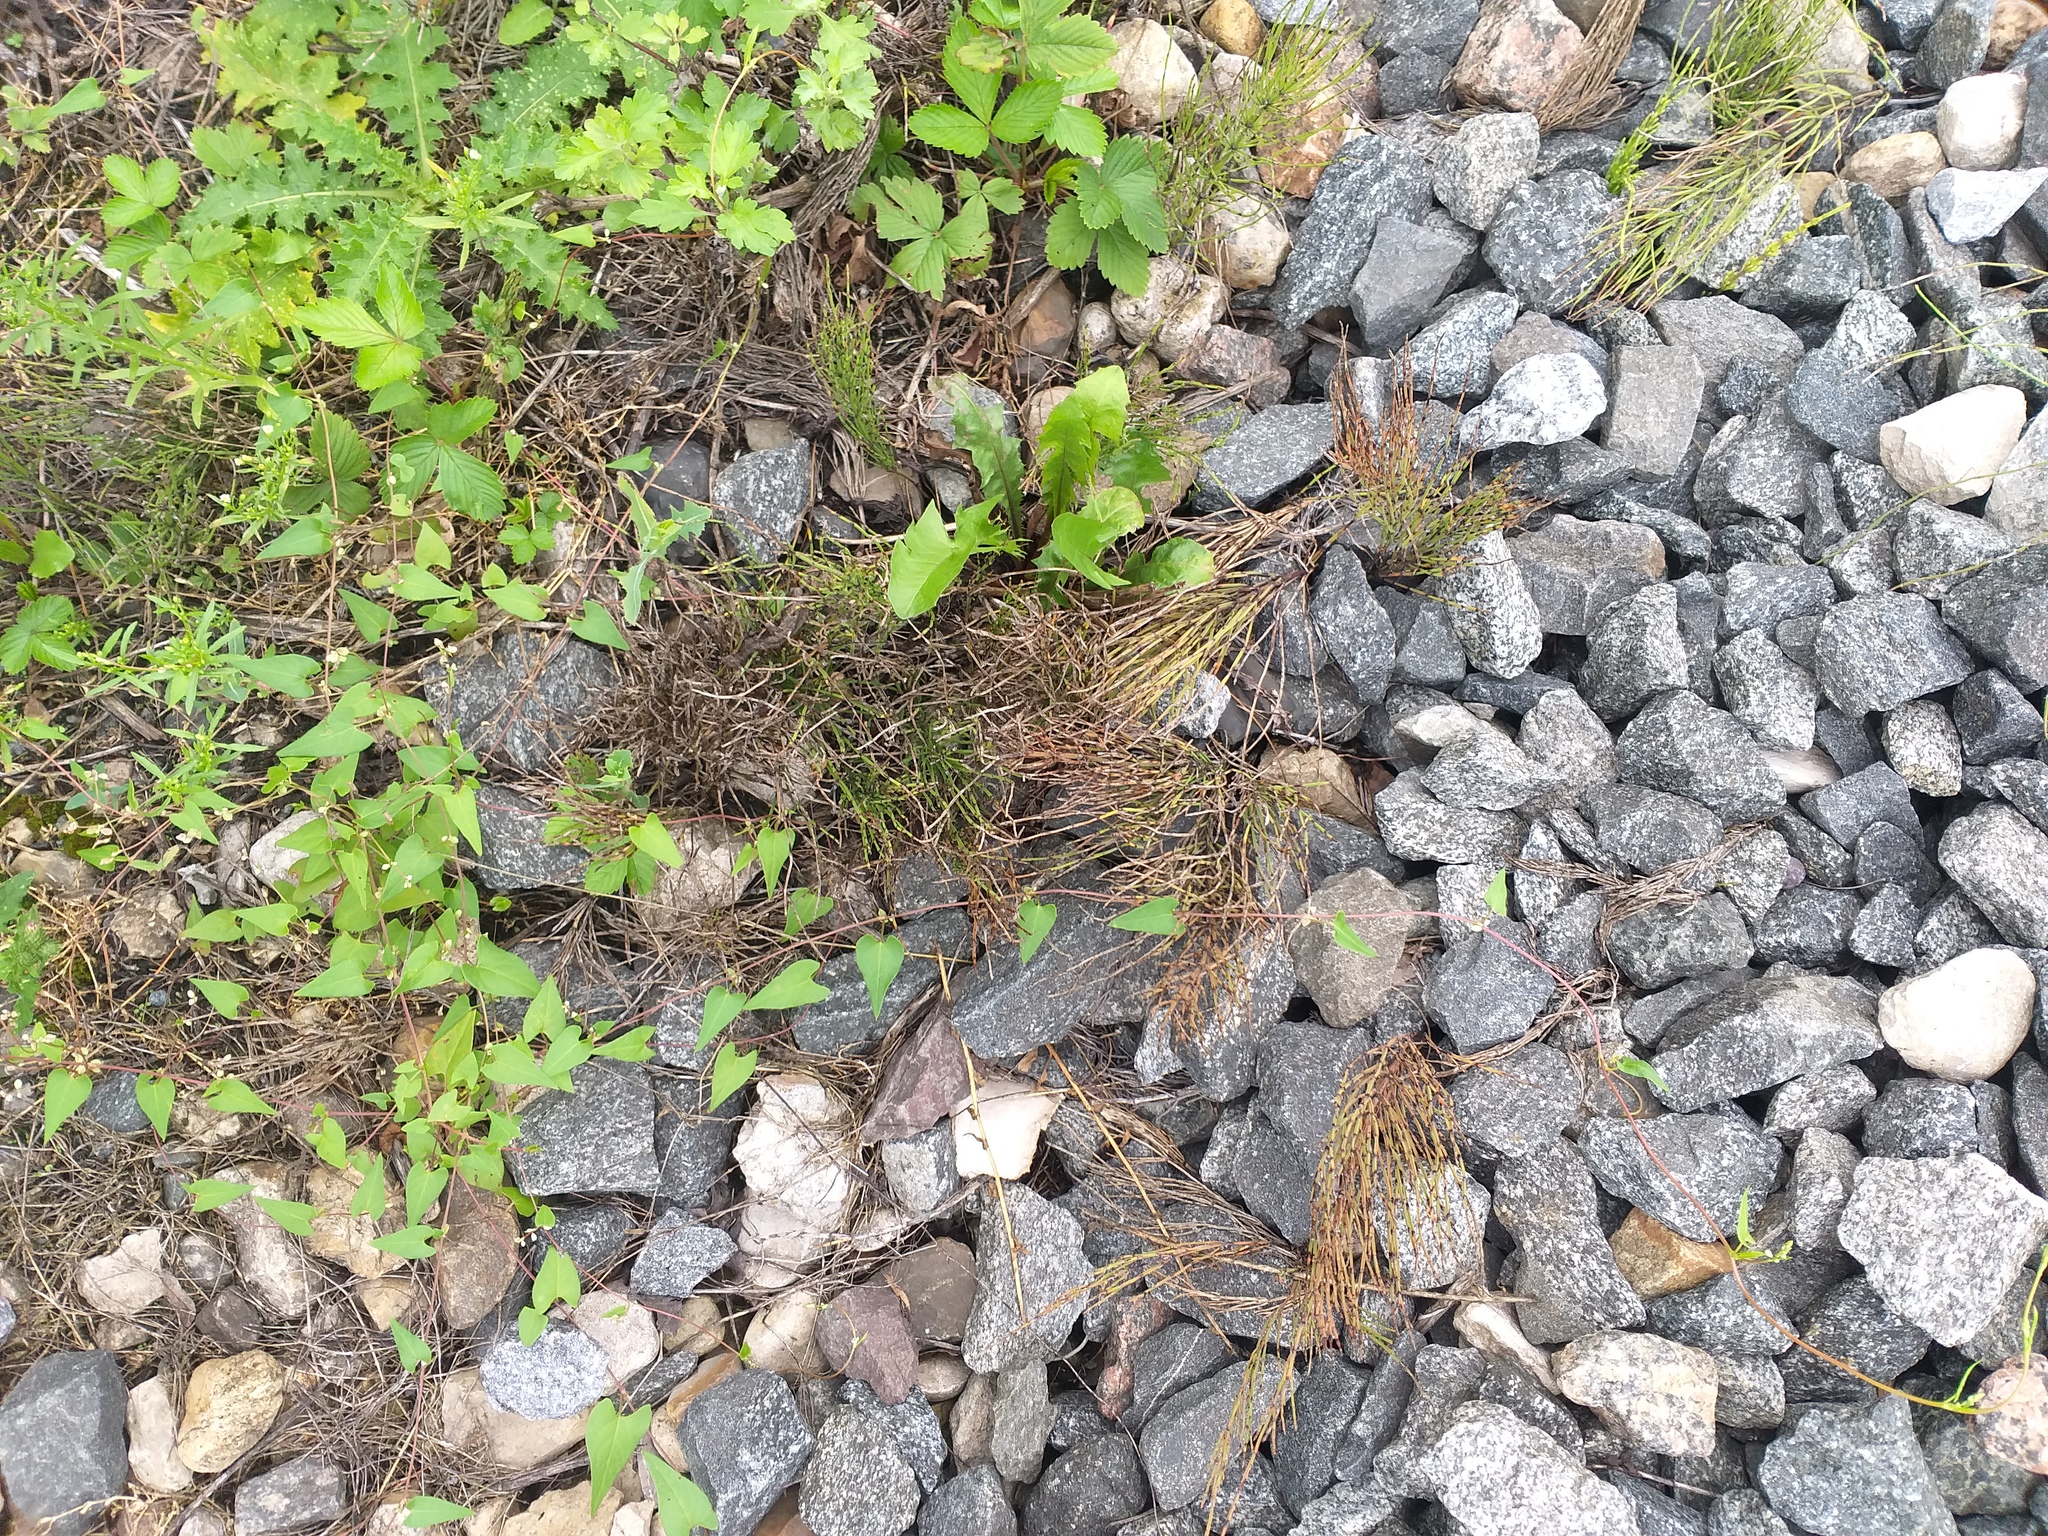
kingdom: Plantae
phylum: Tracheophyta
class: Polypodiopsida
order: Equisetales
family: Equisetaceae
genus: Equisetum
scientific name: Equisetum arvense
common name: Field horsetail
